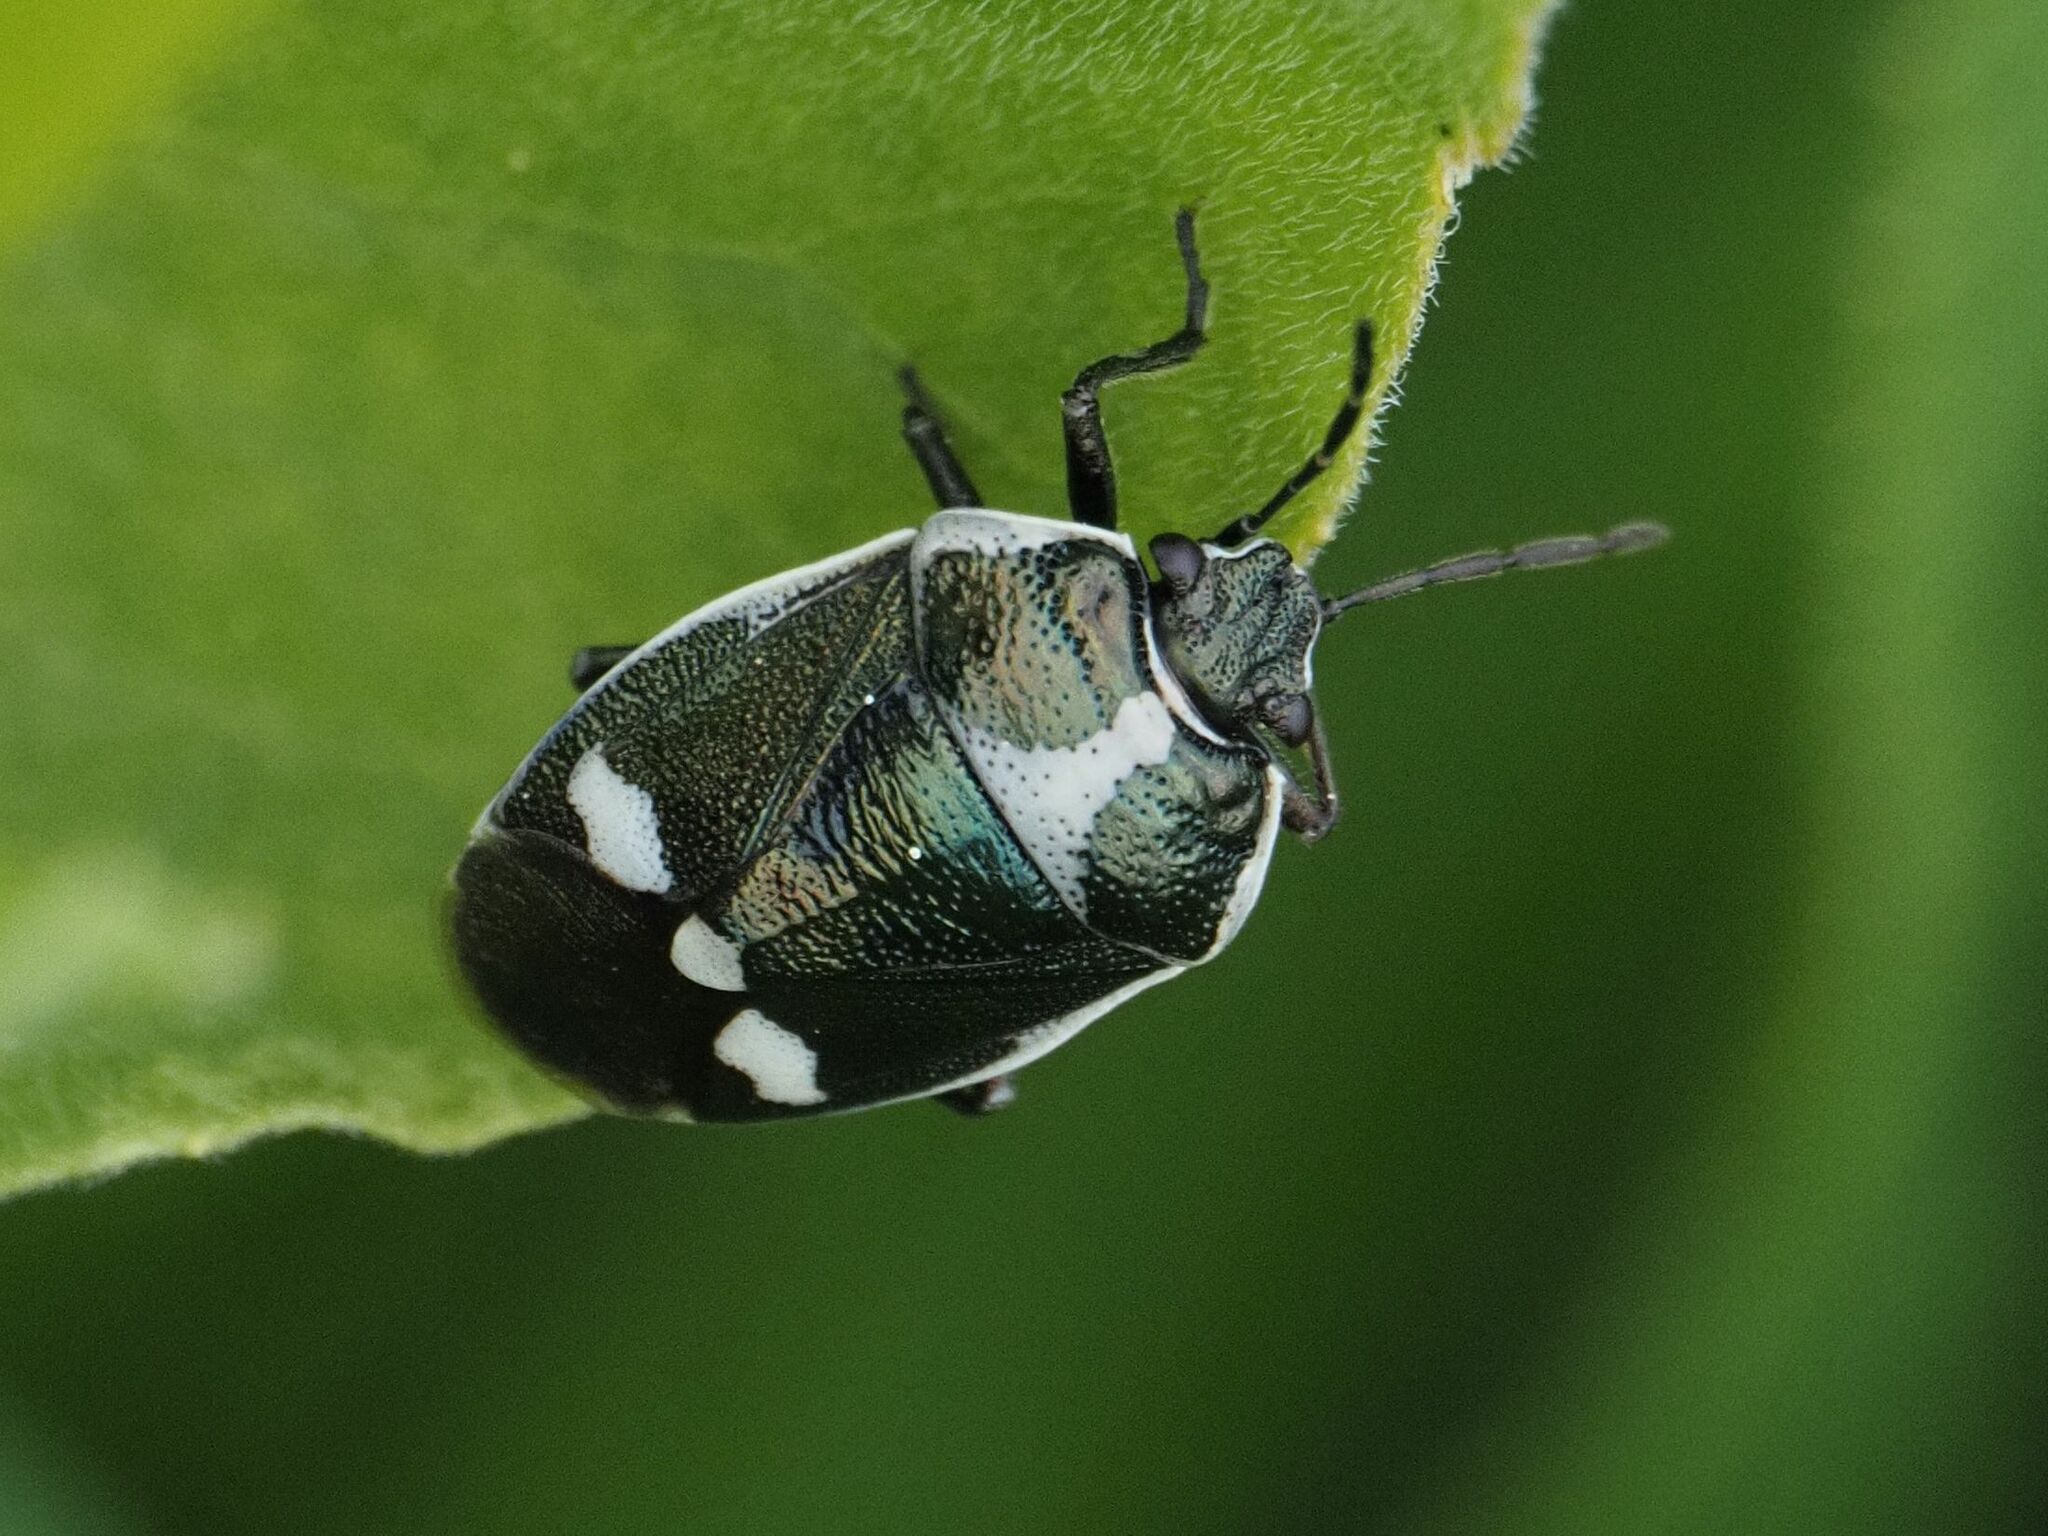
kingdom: Animalia
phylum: Arthropoda
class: Insecta
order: Hemiptera
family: Pentatomidae
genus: Eurydema
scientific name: Eurydema oleracea
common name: Cabbage bug
